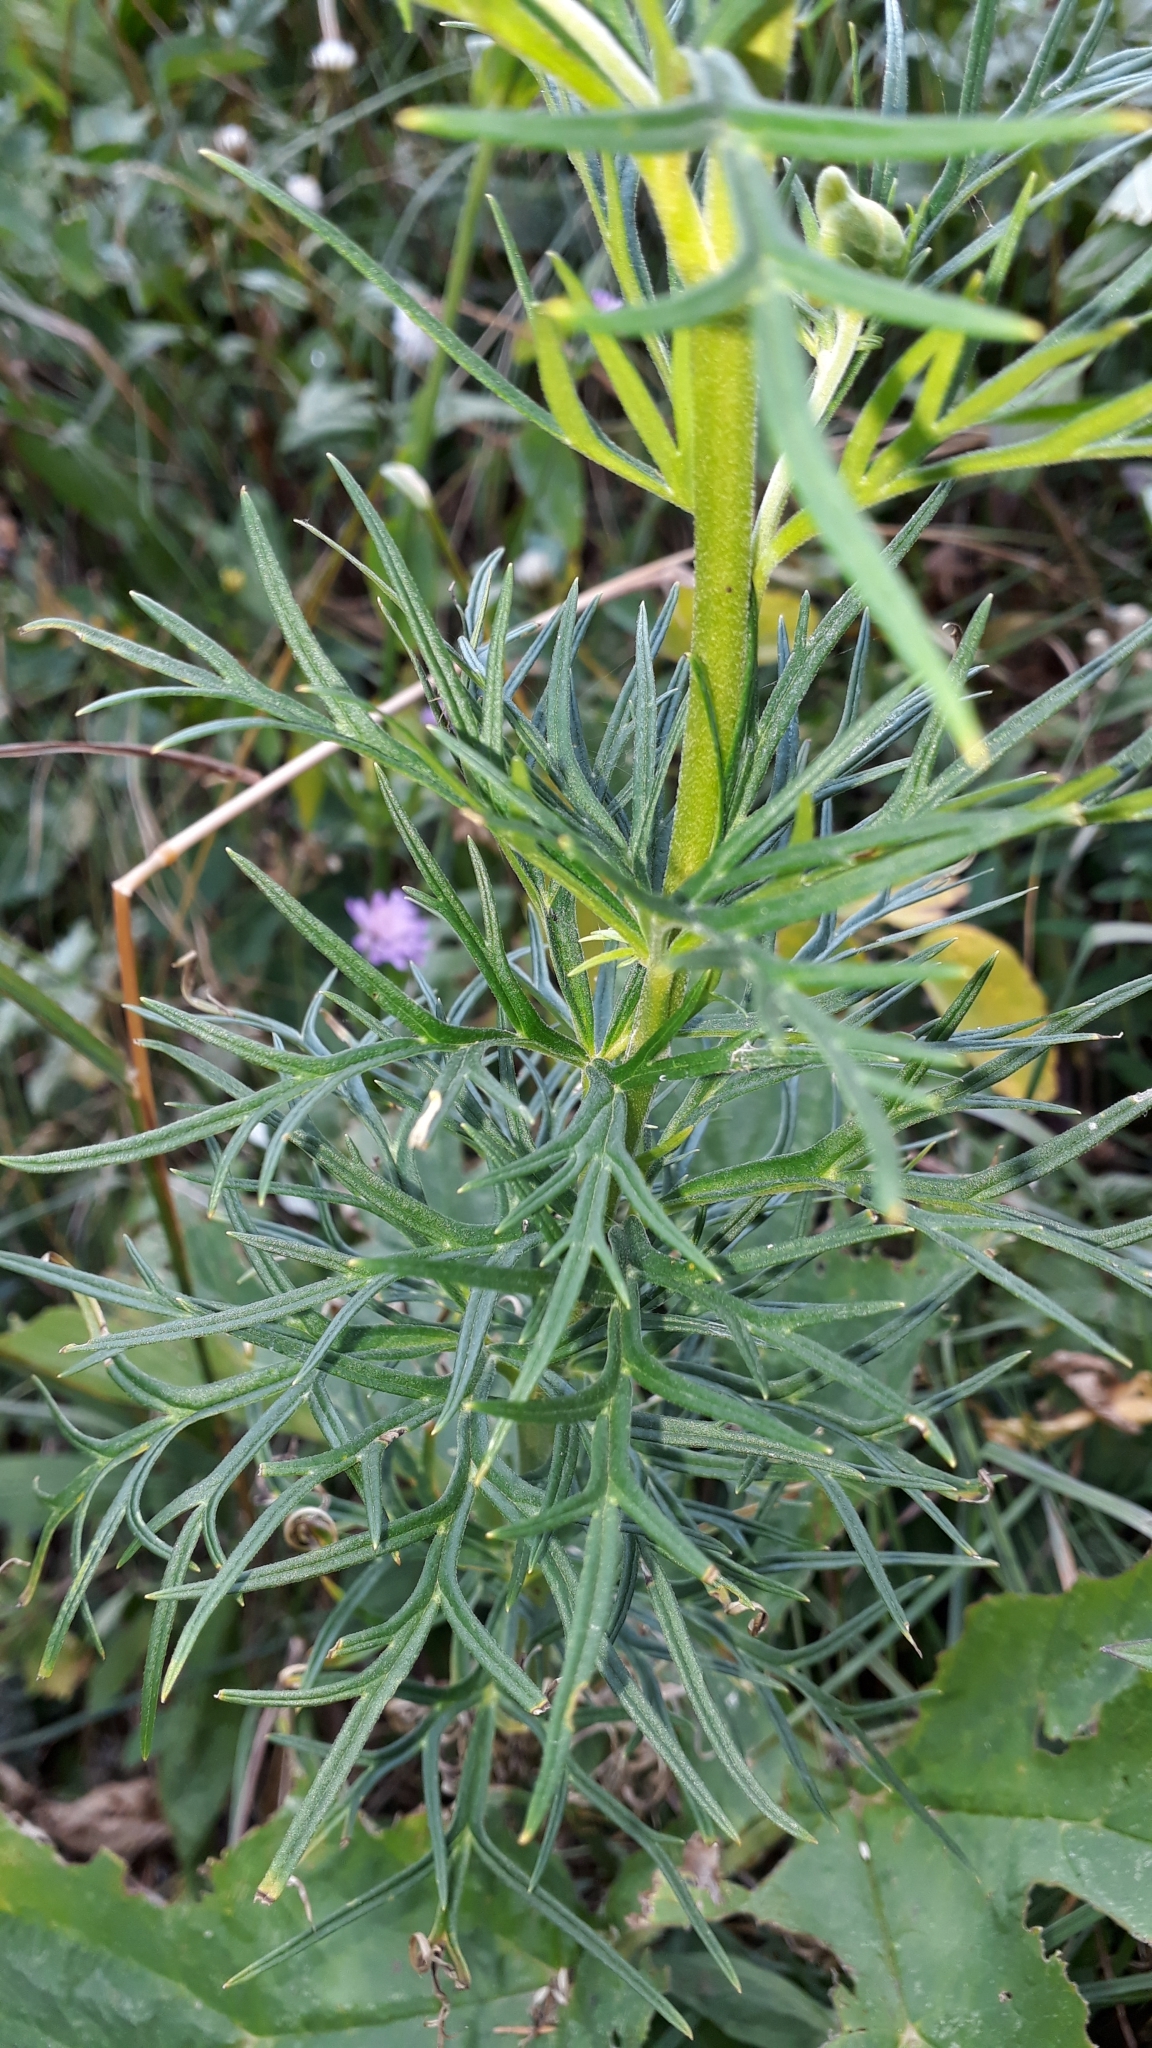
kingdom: Plantae
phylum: Tracheophyta
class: Magnoliopsida
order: Ranunculales
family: Ranunculaceae
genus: Aconitum
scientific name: Aconitum anthora
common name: Yellow monkshood
